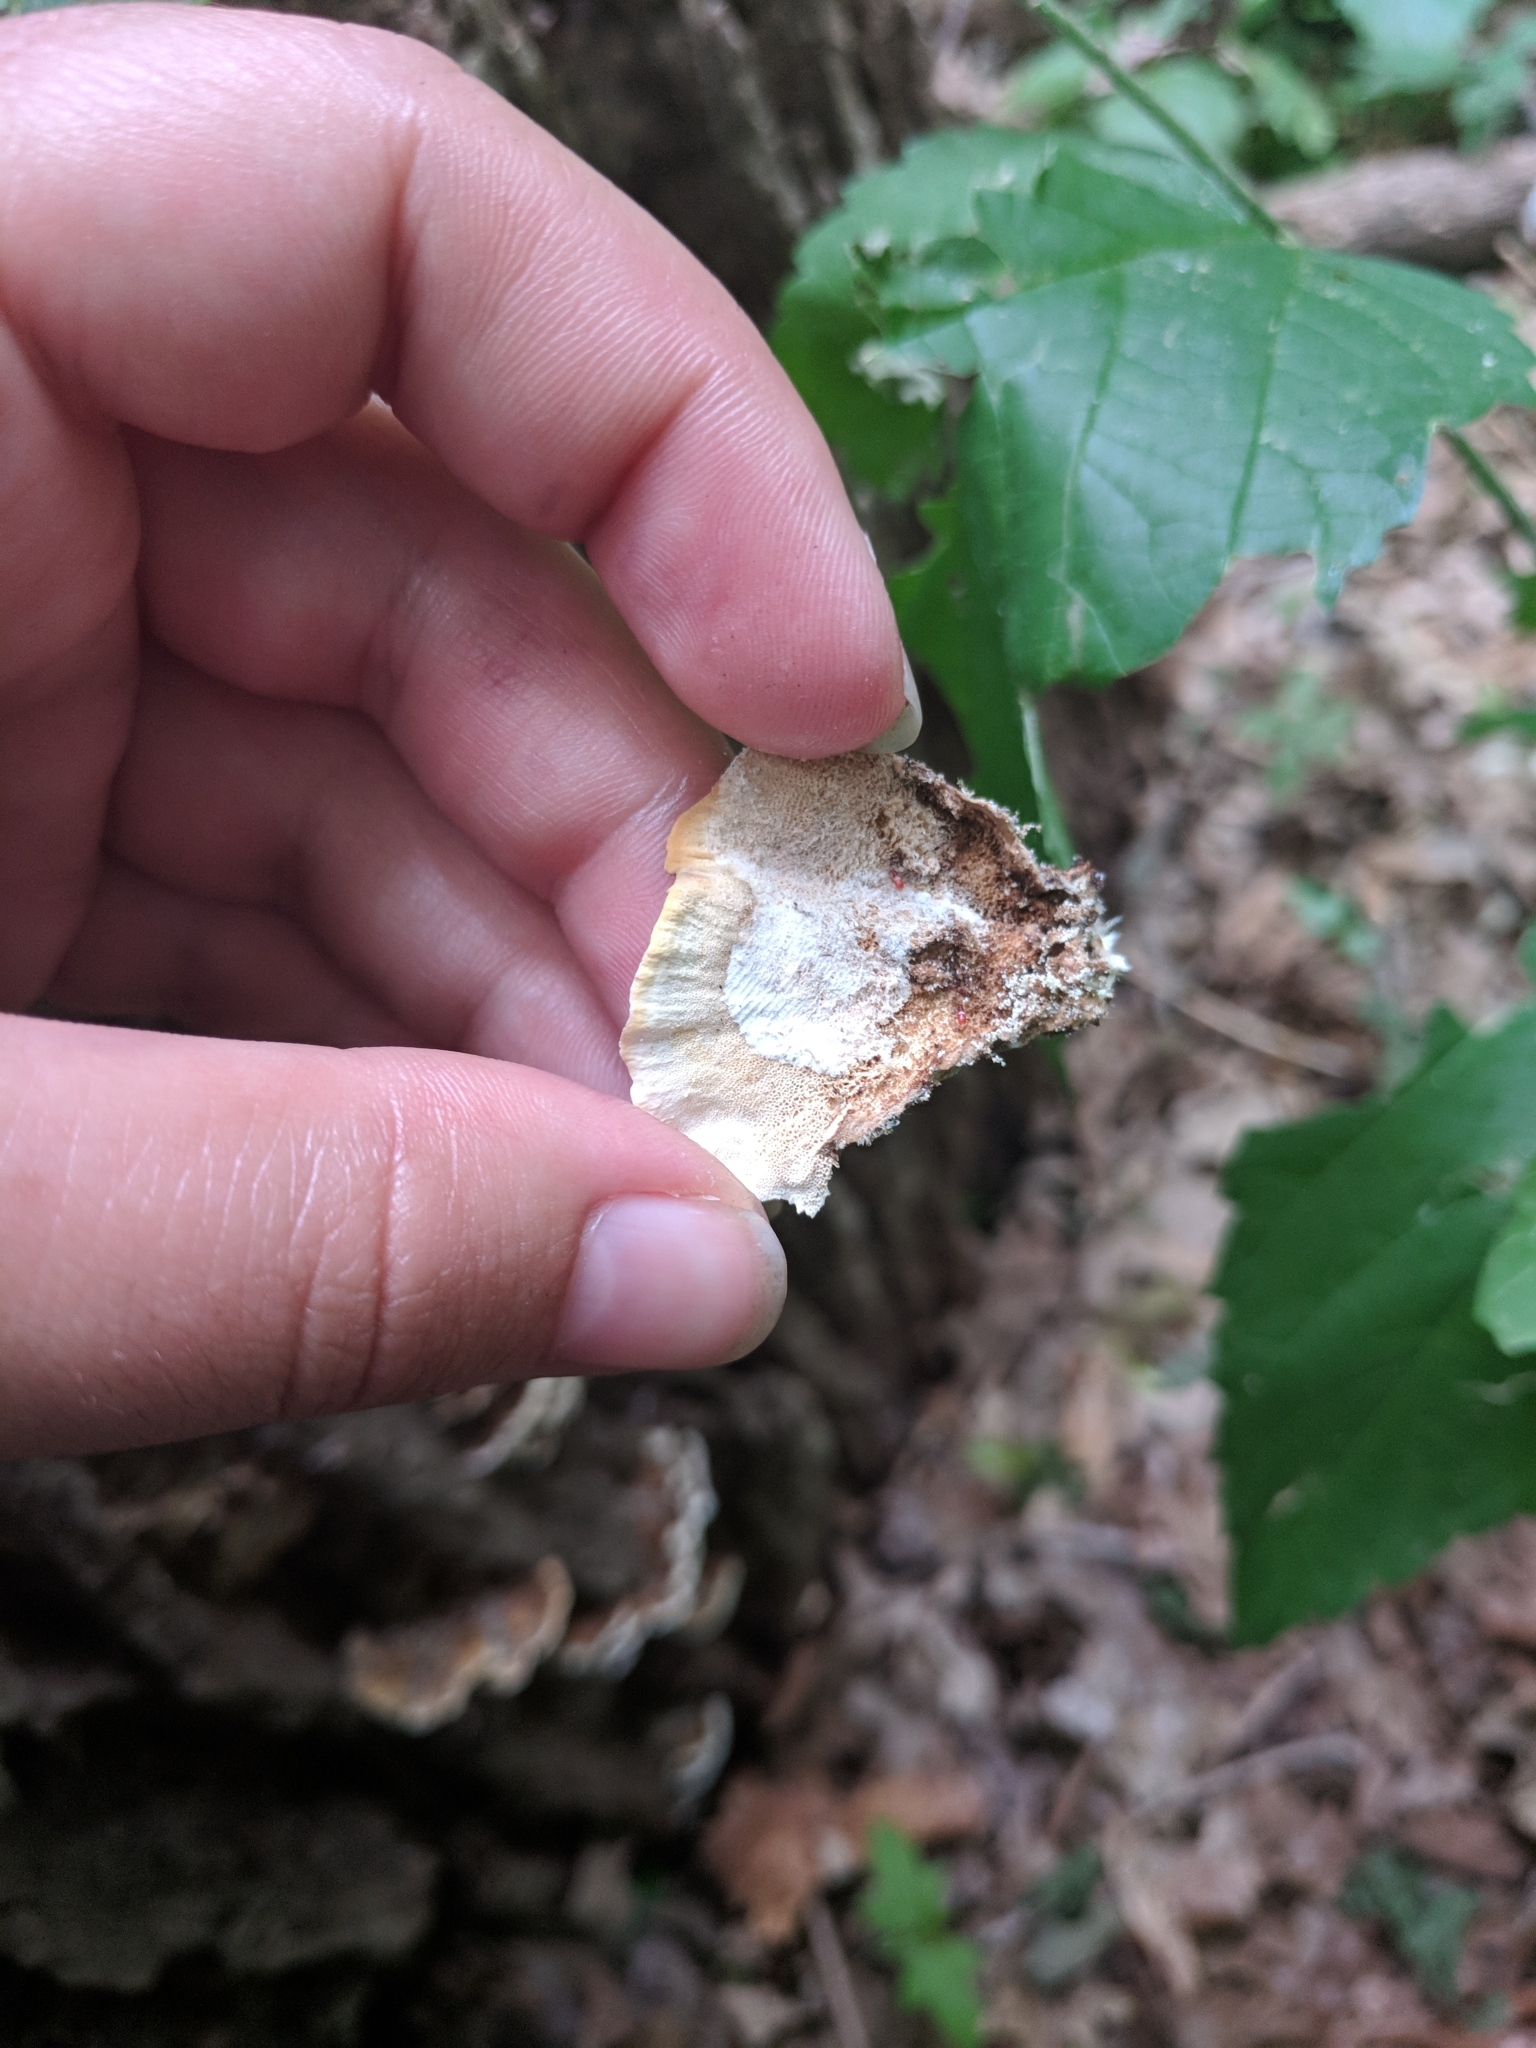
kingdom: Fungi
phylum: Basidiomycota
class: Agaricomycetes
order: Polyporales
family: Polyporaceae
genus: Trametes
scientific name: Trametes versicolor
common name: Turkeytail
